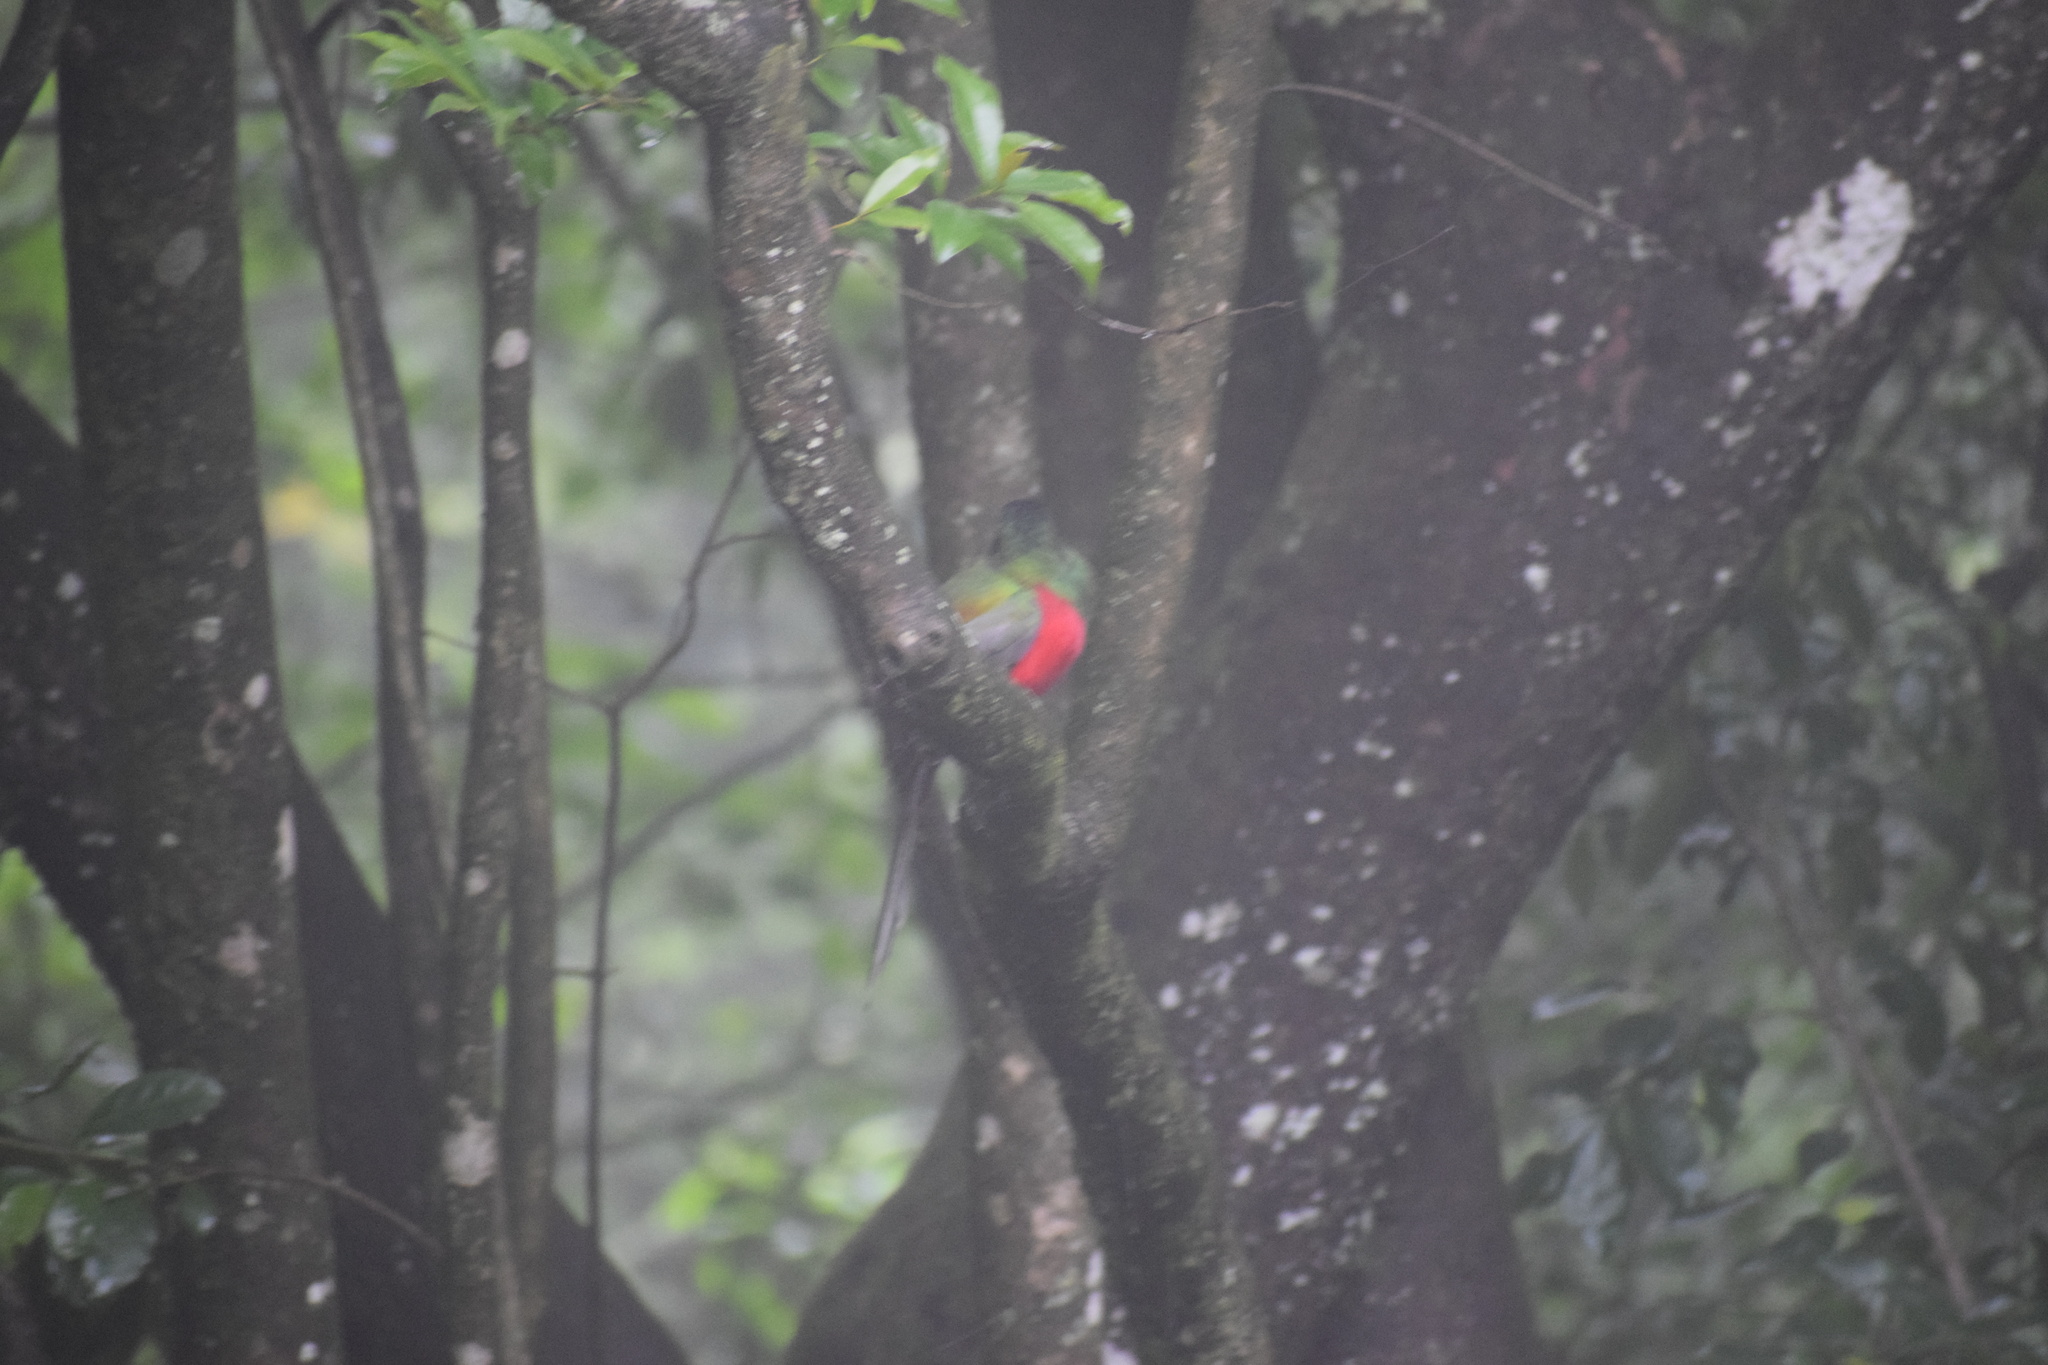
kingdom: Animalia
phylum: Chordata
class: Aves
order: Trogoniformes
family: Trogonidae
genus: Apaloderma
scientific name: Apaloderma narina
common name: Narina trogon
